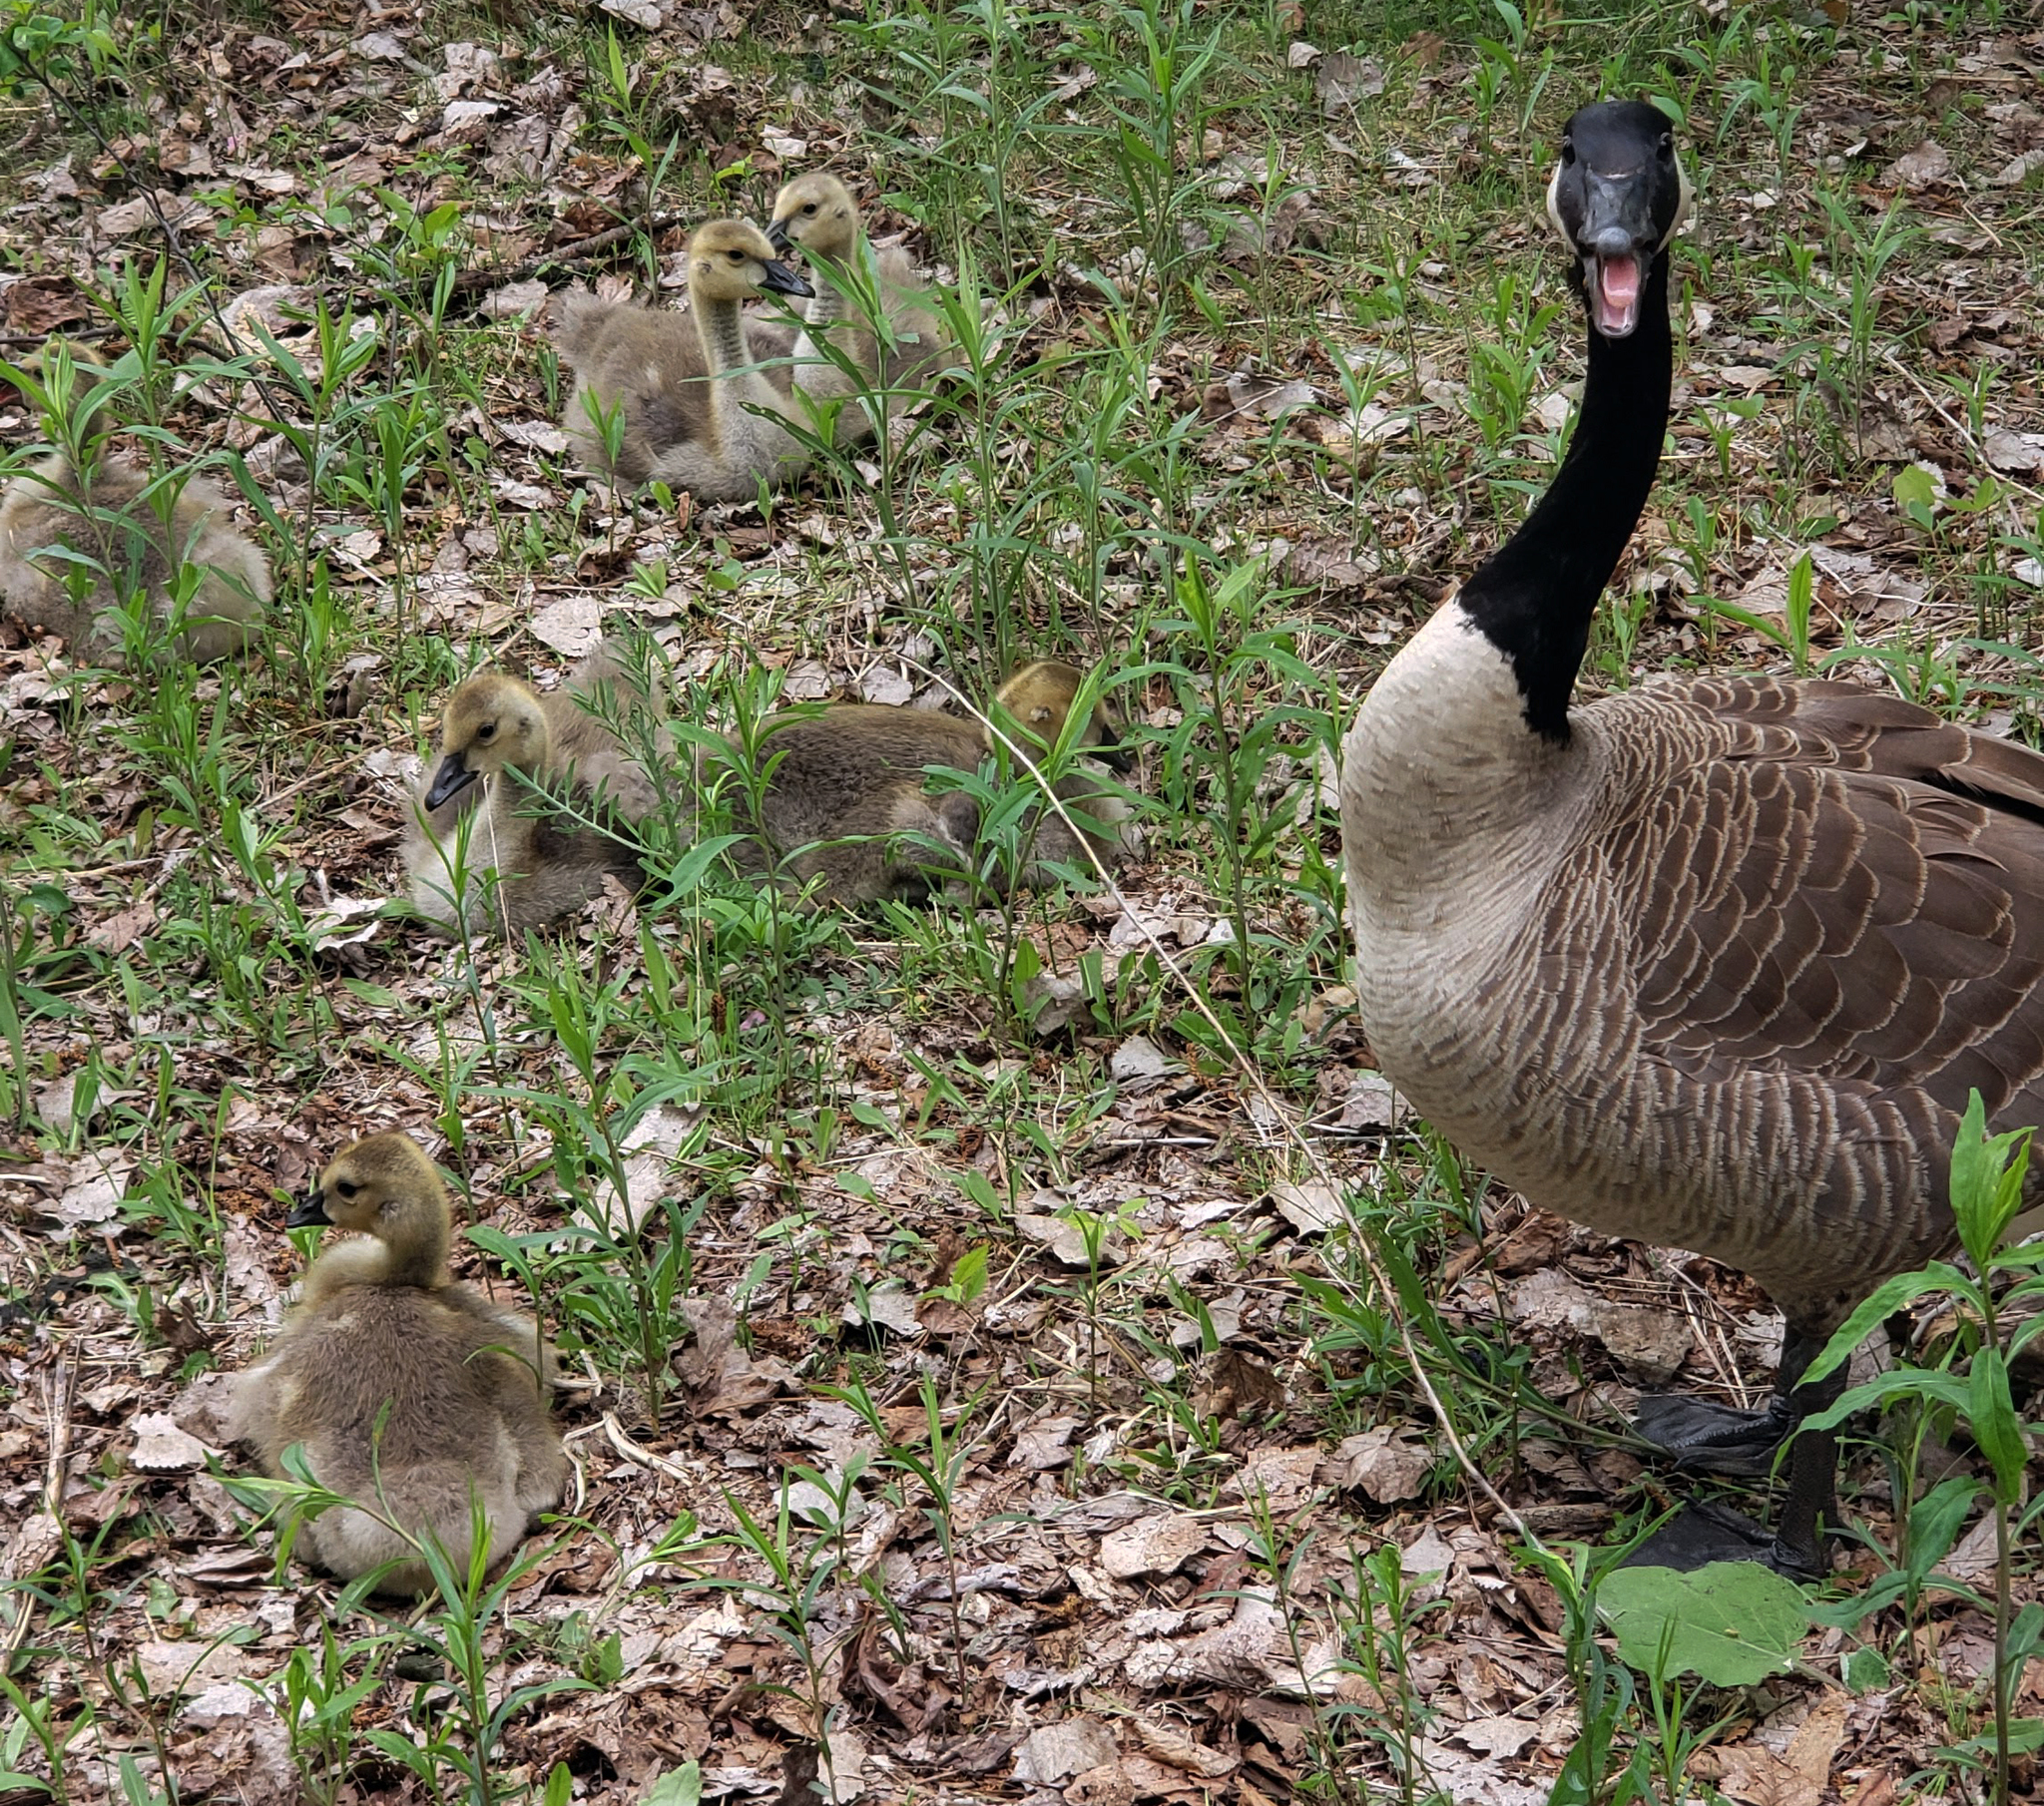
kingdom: Animalia
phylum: Chordata
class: Aves
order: Anseriformes
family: Anatidae
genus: Branta
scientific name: Branta canadensis
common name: Canada goose
